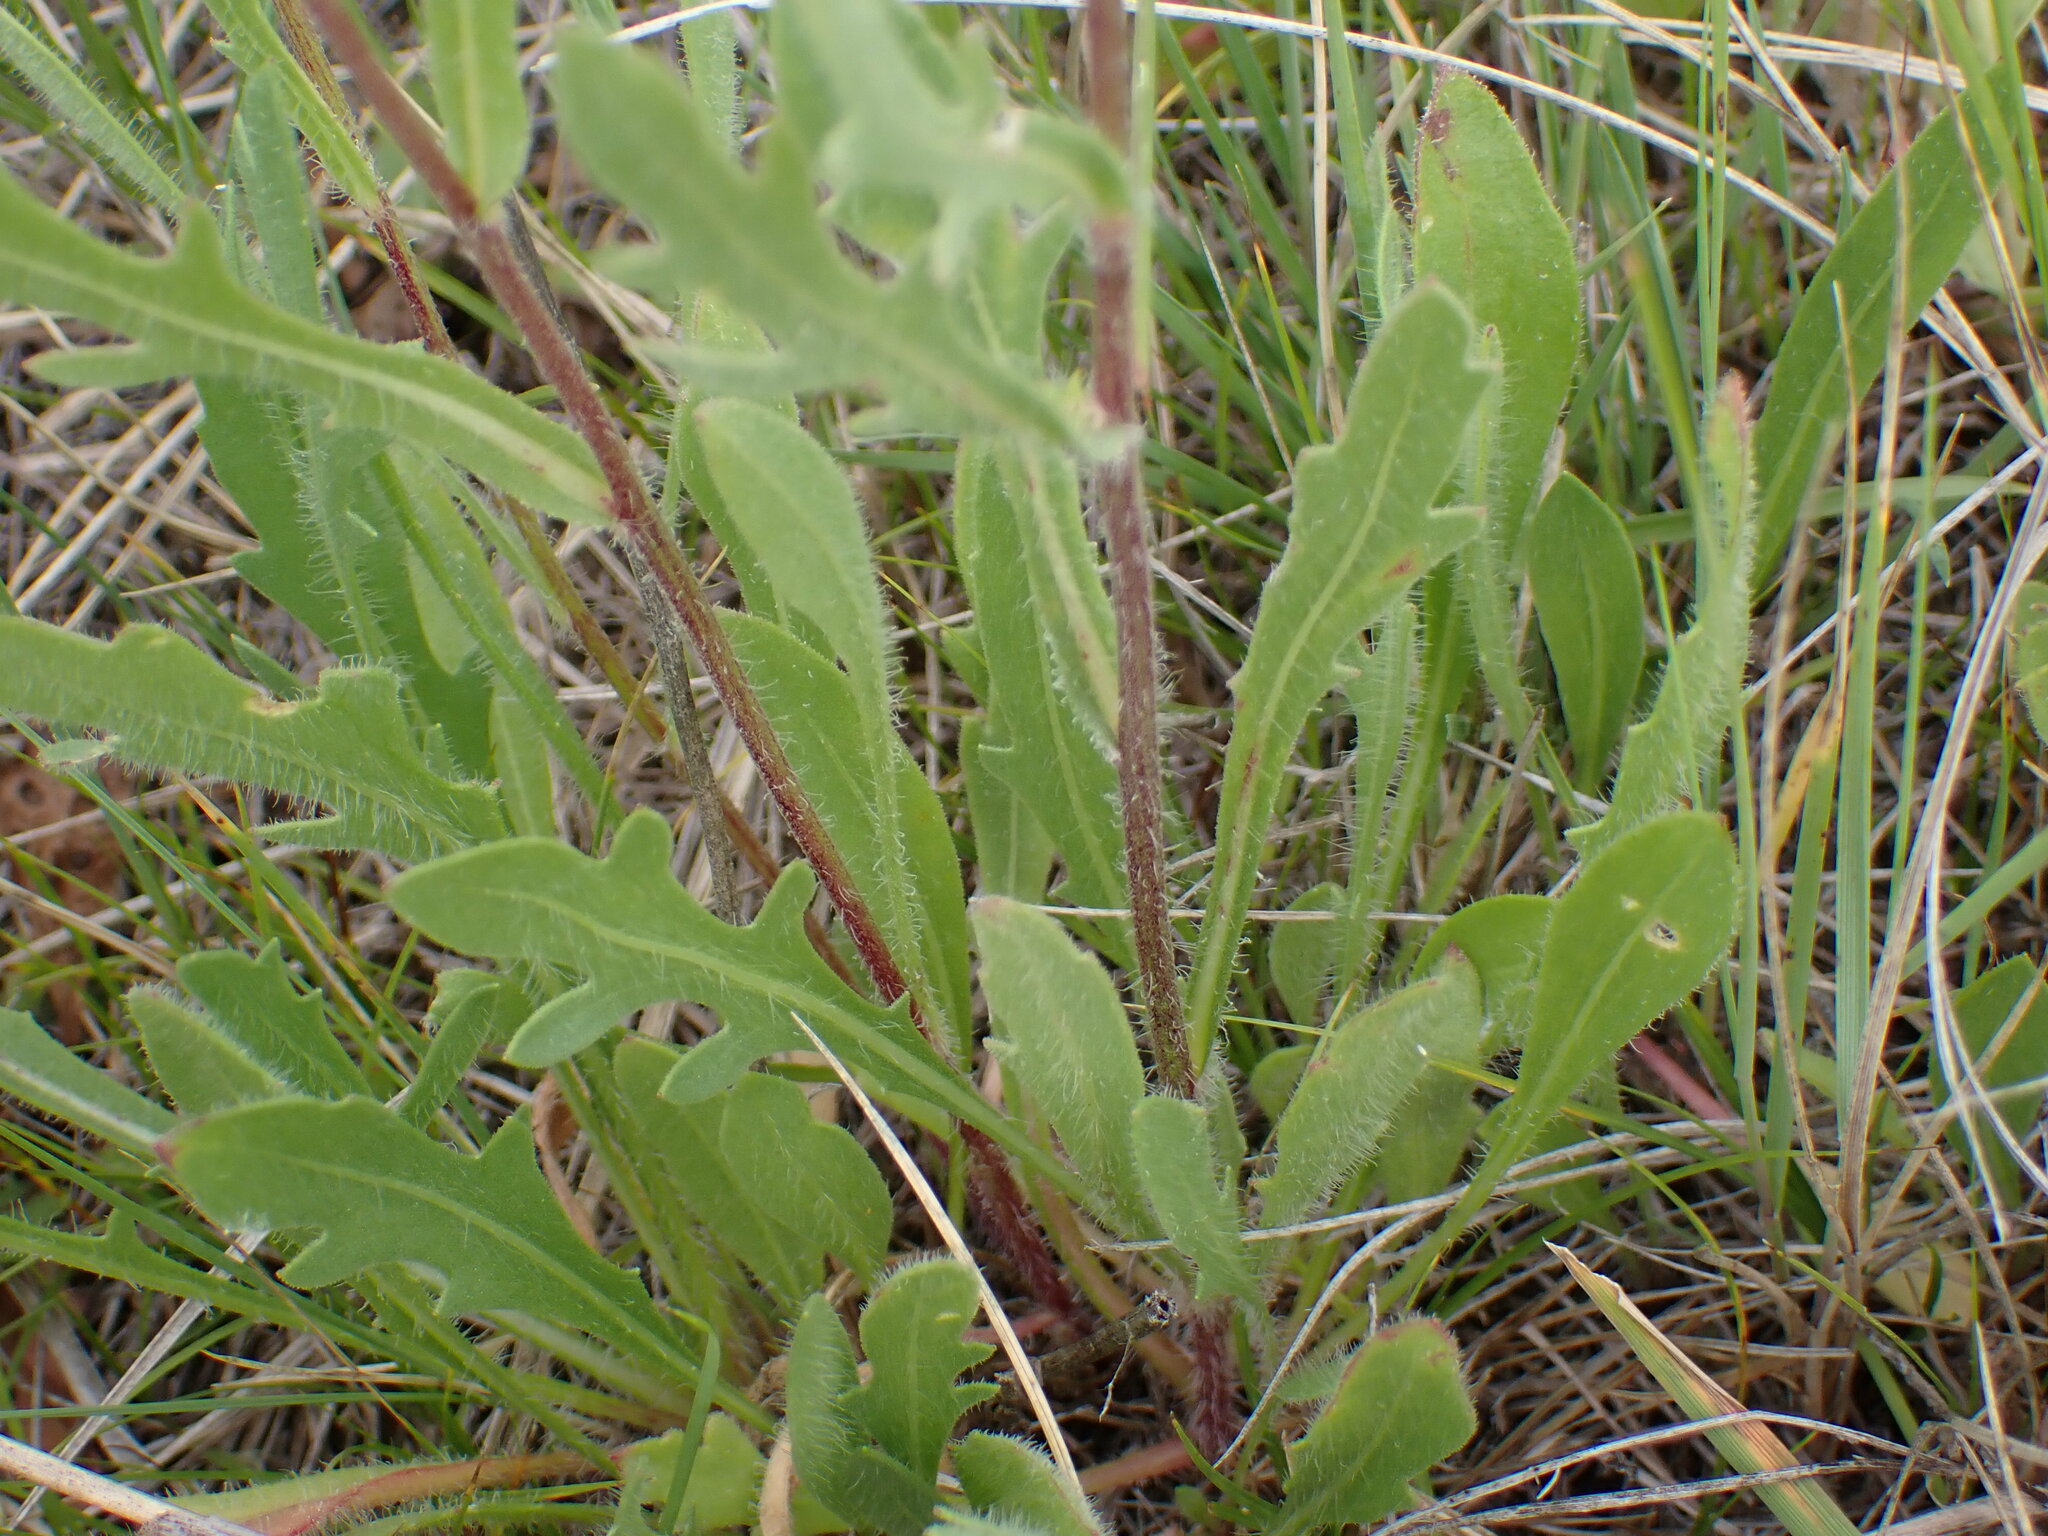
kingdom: Plantae
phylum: Tracheophyta
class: Magnoliopsida
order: Asterales
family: Asteraceae
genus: Gaillardia
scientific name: Gaillardia aristata
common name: Blanket-flower
